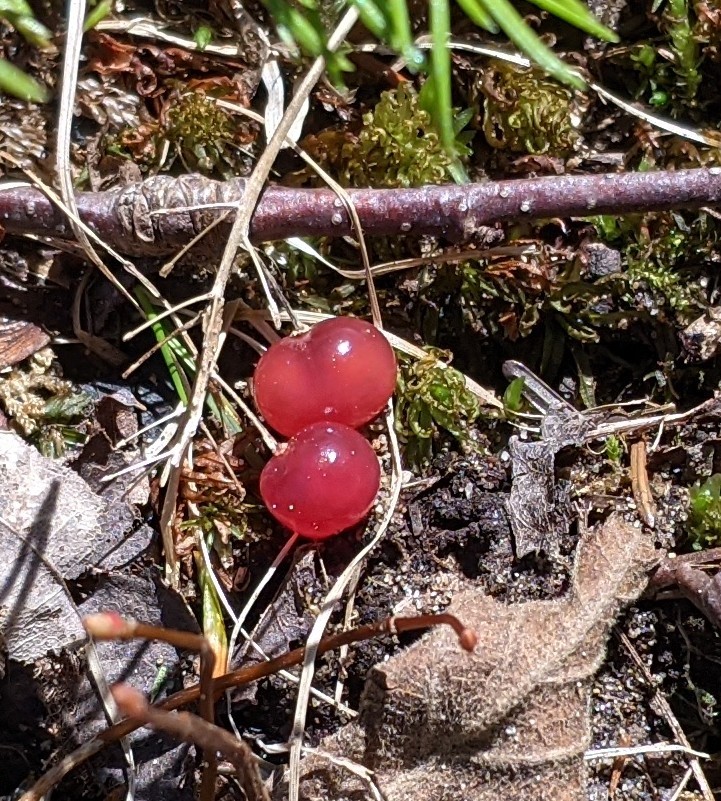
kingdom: Plantae
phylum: Tracheophyta
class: Liliopsida
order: Asparagales
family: Asparagaceae
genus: Maianthemum
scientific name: Maianthemum canadense
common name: False lily-of-the-valley
